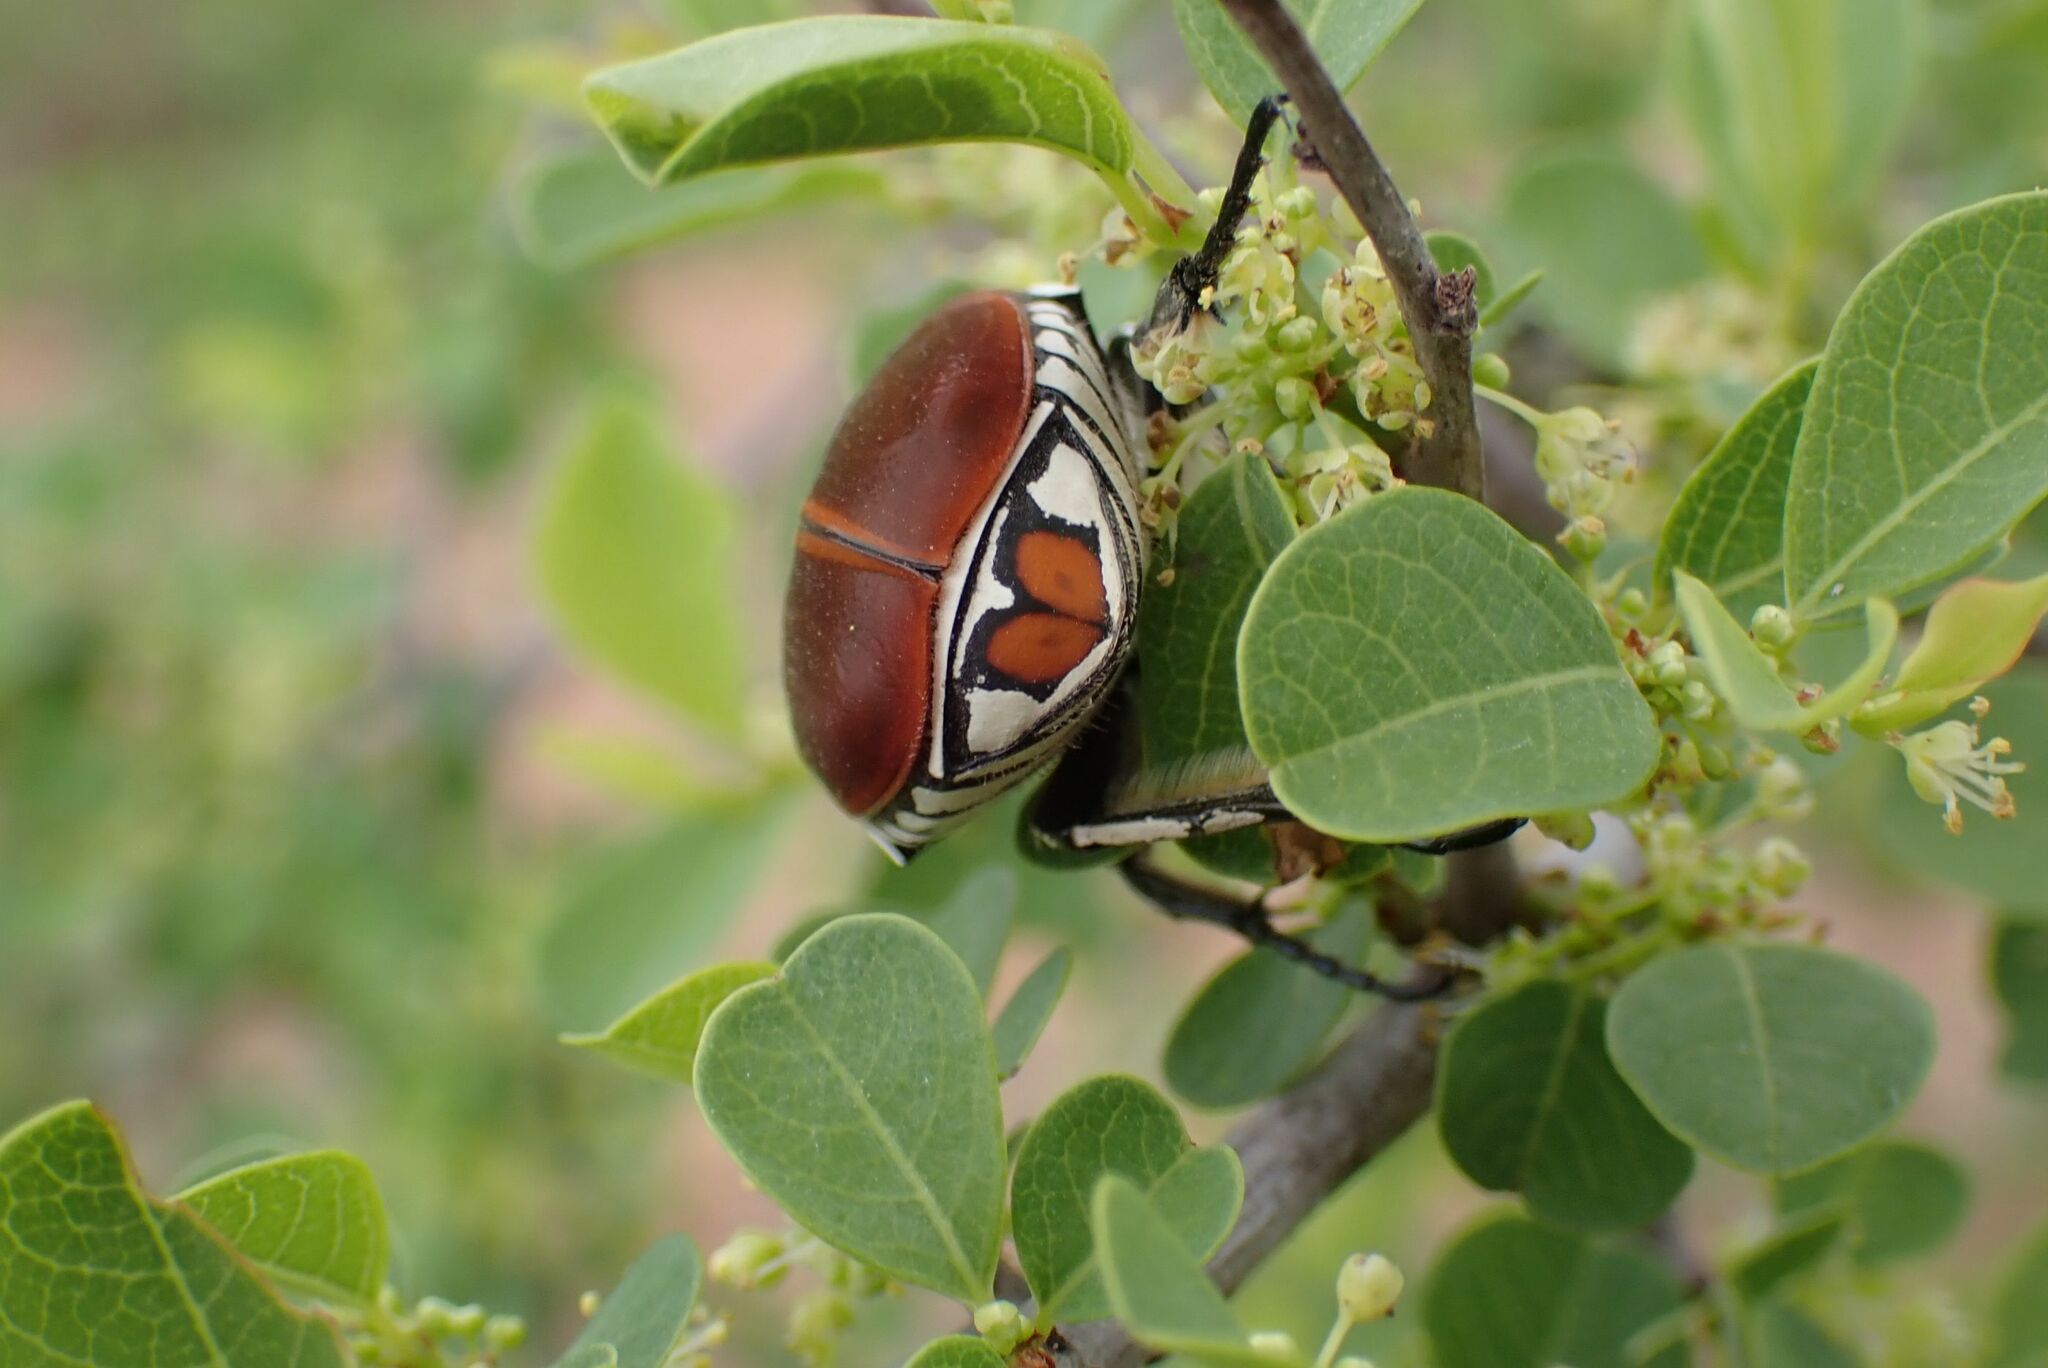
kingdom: Animalia
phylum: Arthropoda
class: Insecta
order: Coleoptera
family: Scarabaeidae
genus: Dischista
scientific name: Dischista cincta
